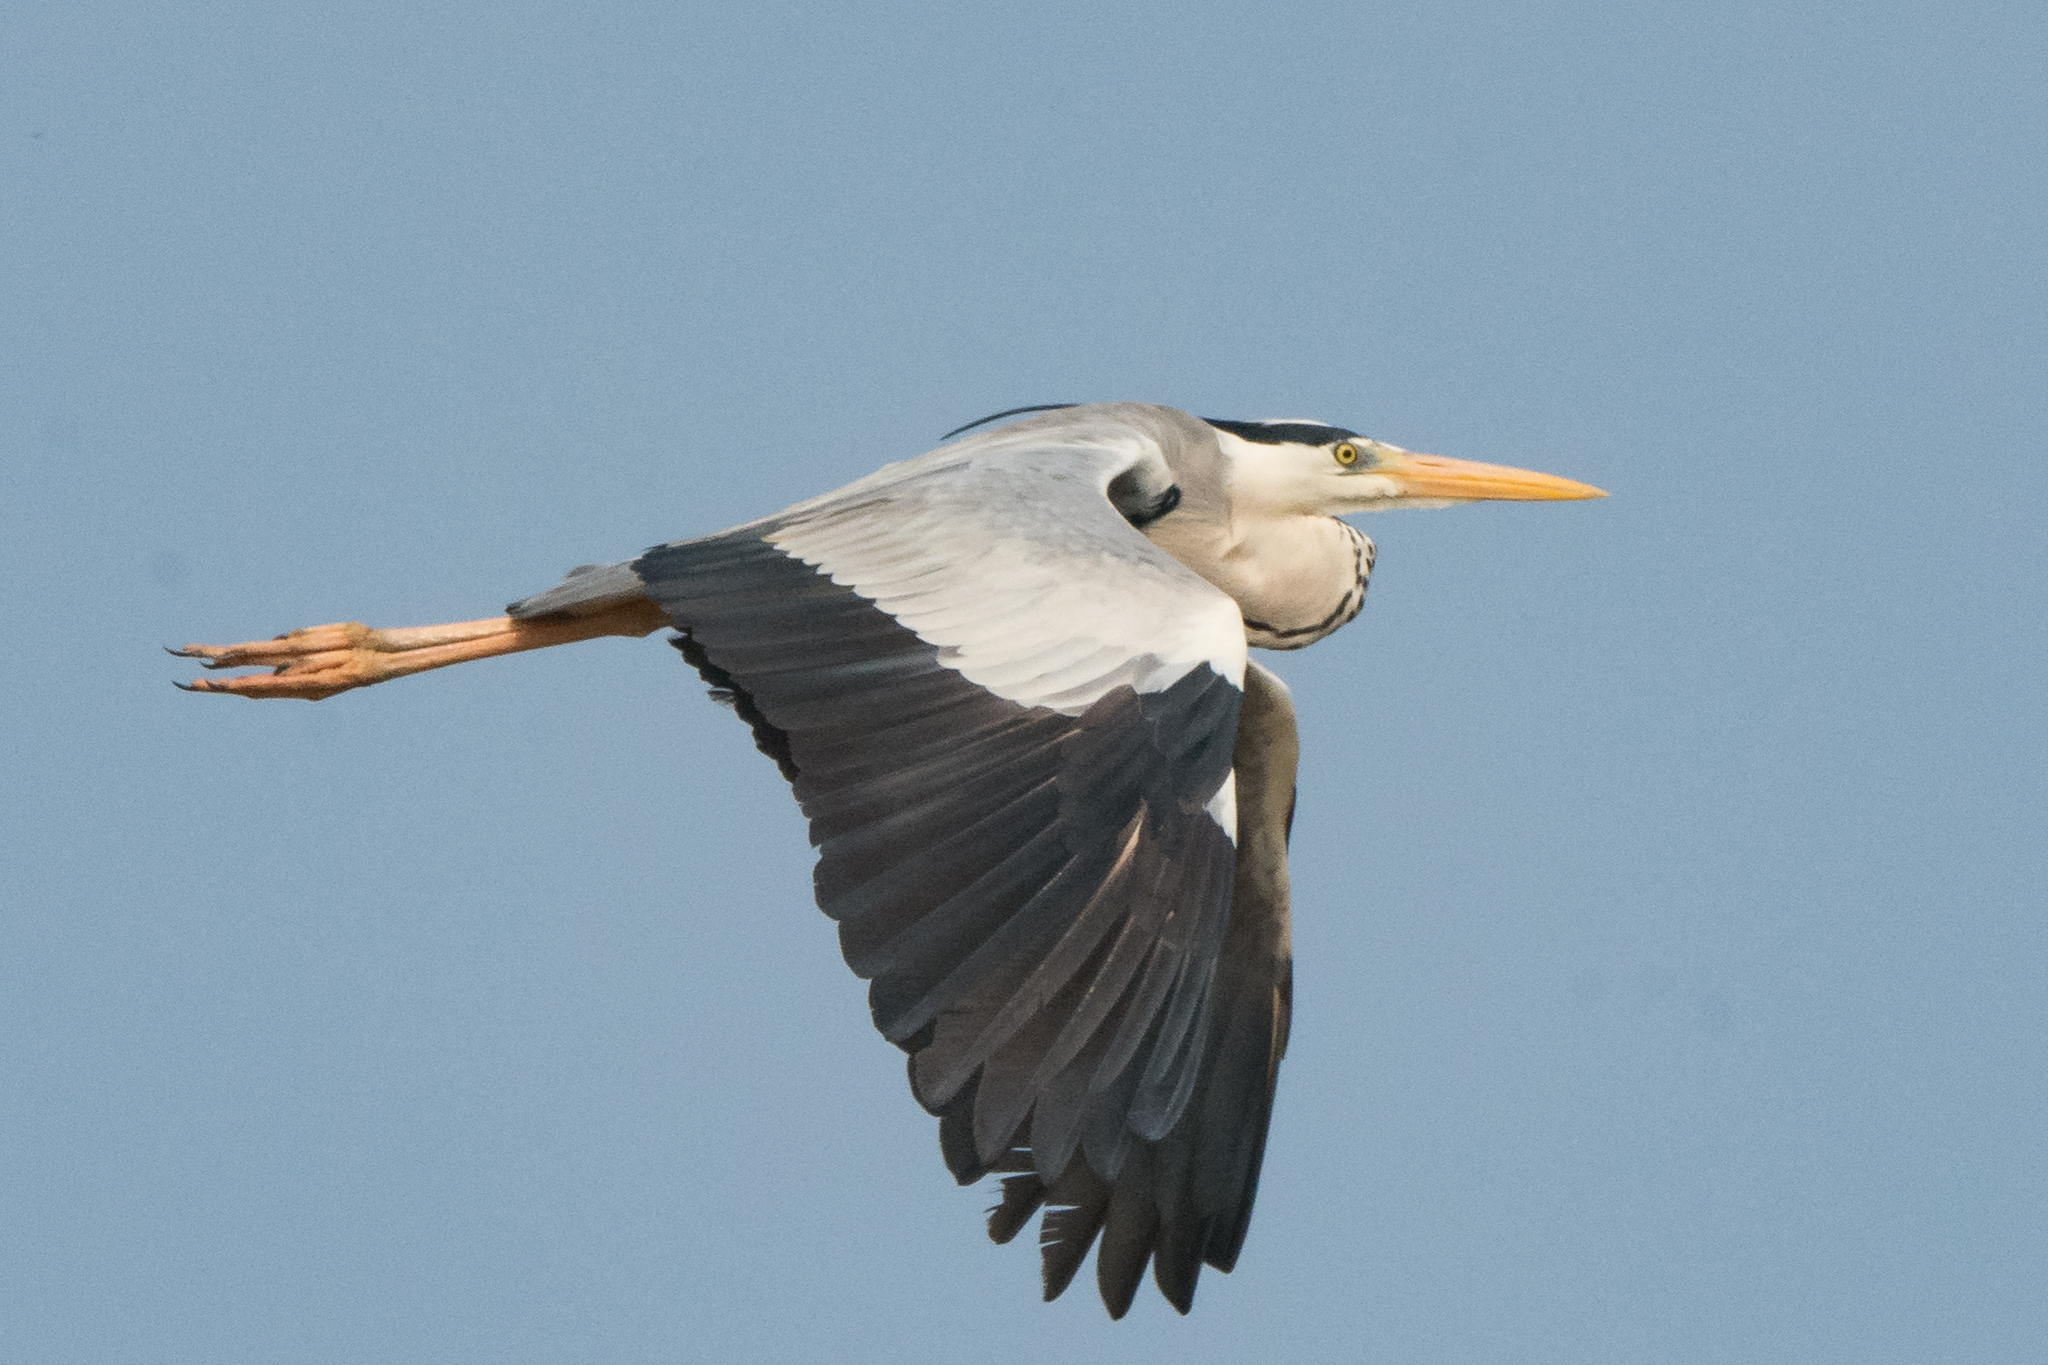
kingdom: Animalia
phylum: Chordata
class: Aves
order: Pelecaniformes
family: Ardeidae
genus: Ardea
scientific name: Ardea cinerea
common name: Grey heron
